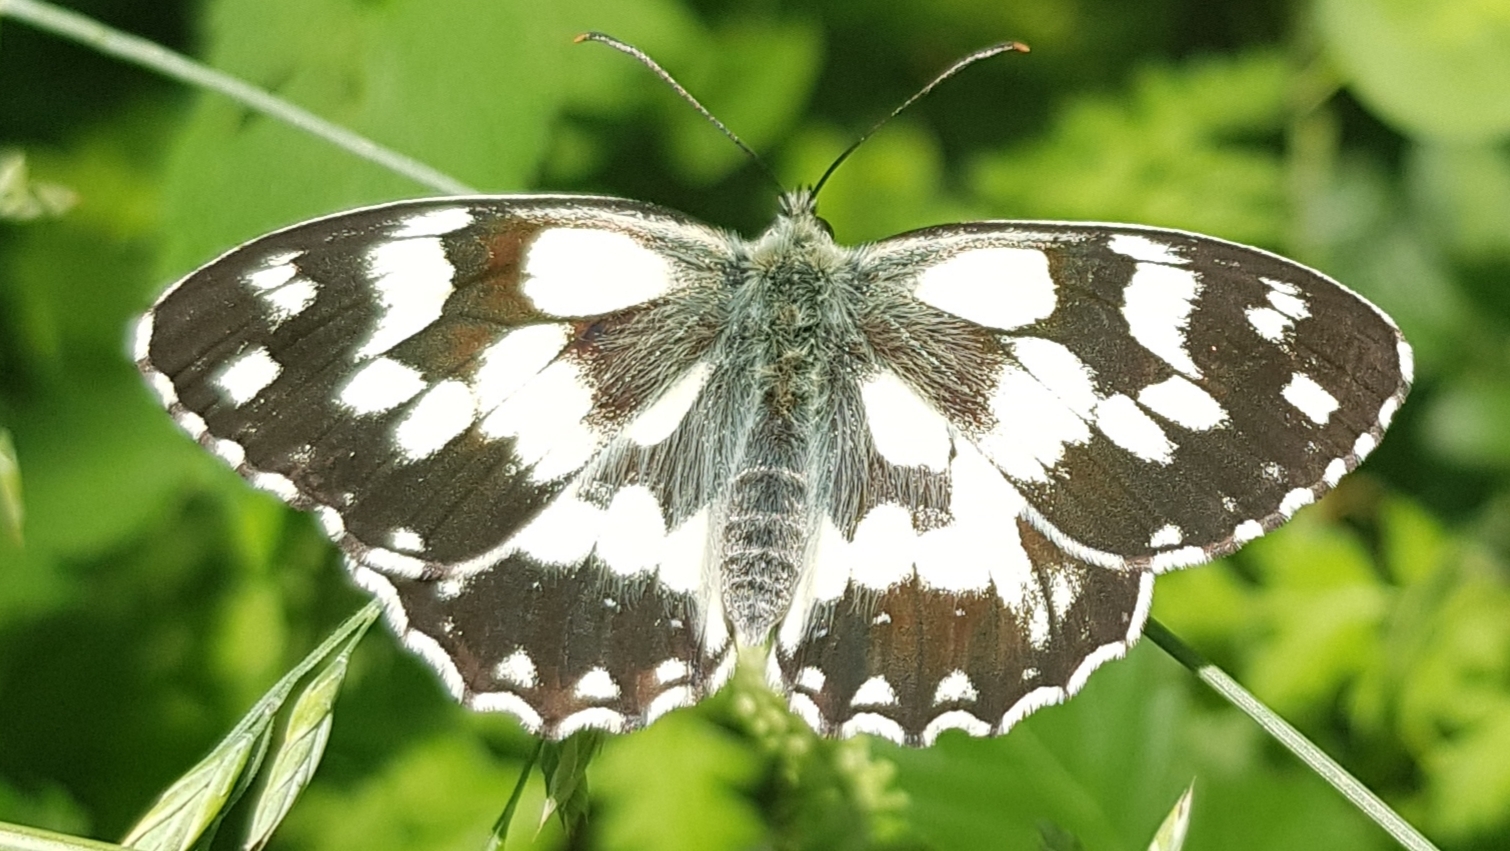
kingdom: Animalia
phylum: Arthropoda
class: Insecta
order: Lepidoptera
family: Nymphalidae
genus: Melanargia
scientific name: Melanargia galathea
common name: Marbled white
